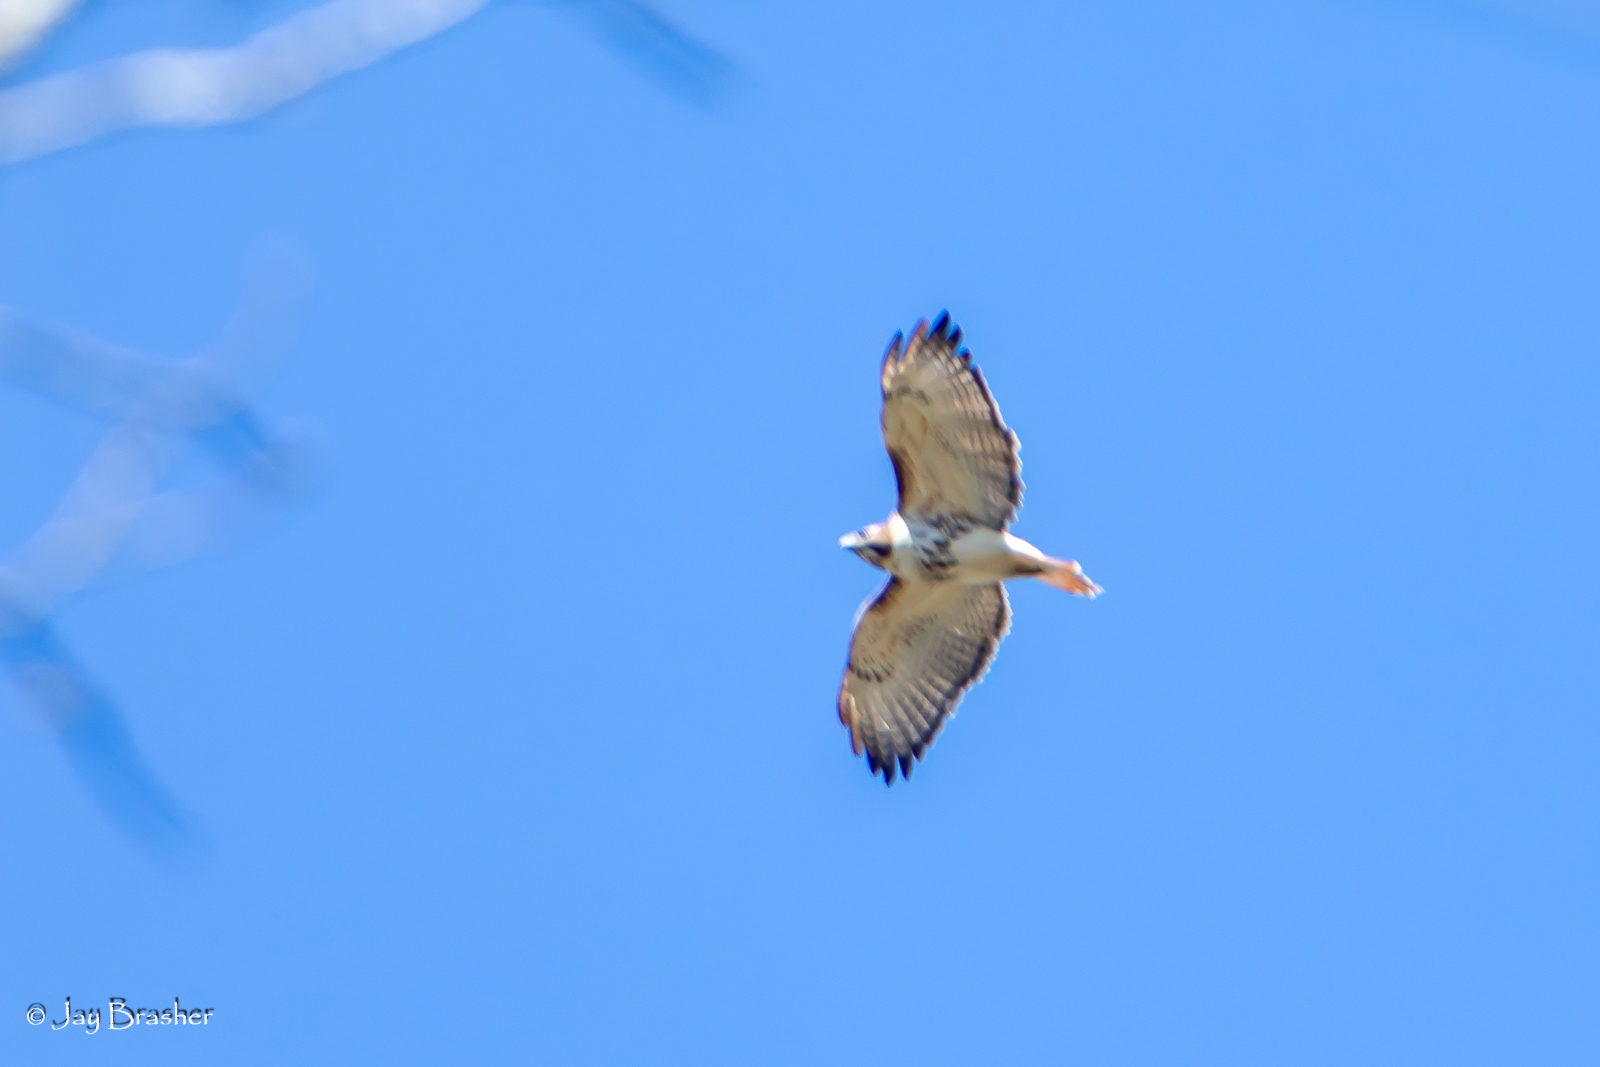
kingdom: Animalia
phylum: Chordata
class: Aves
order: Accipitriformes
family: Accipitridae
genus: Buteo
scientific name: Buteo jamaicensis
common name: Red-tailed hawk
